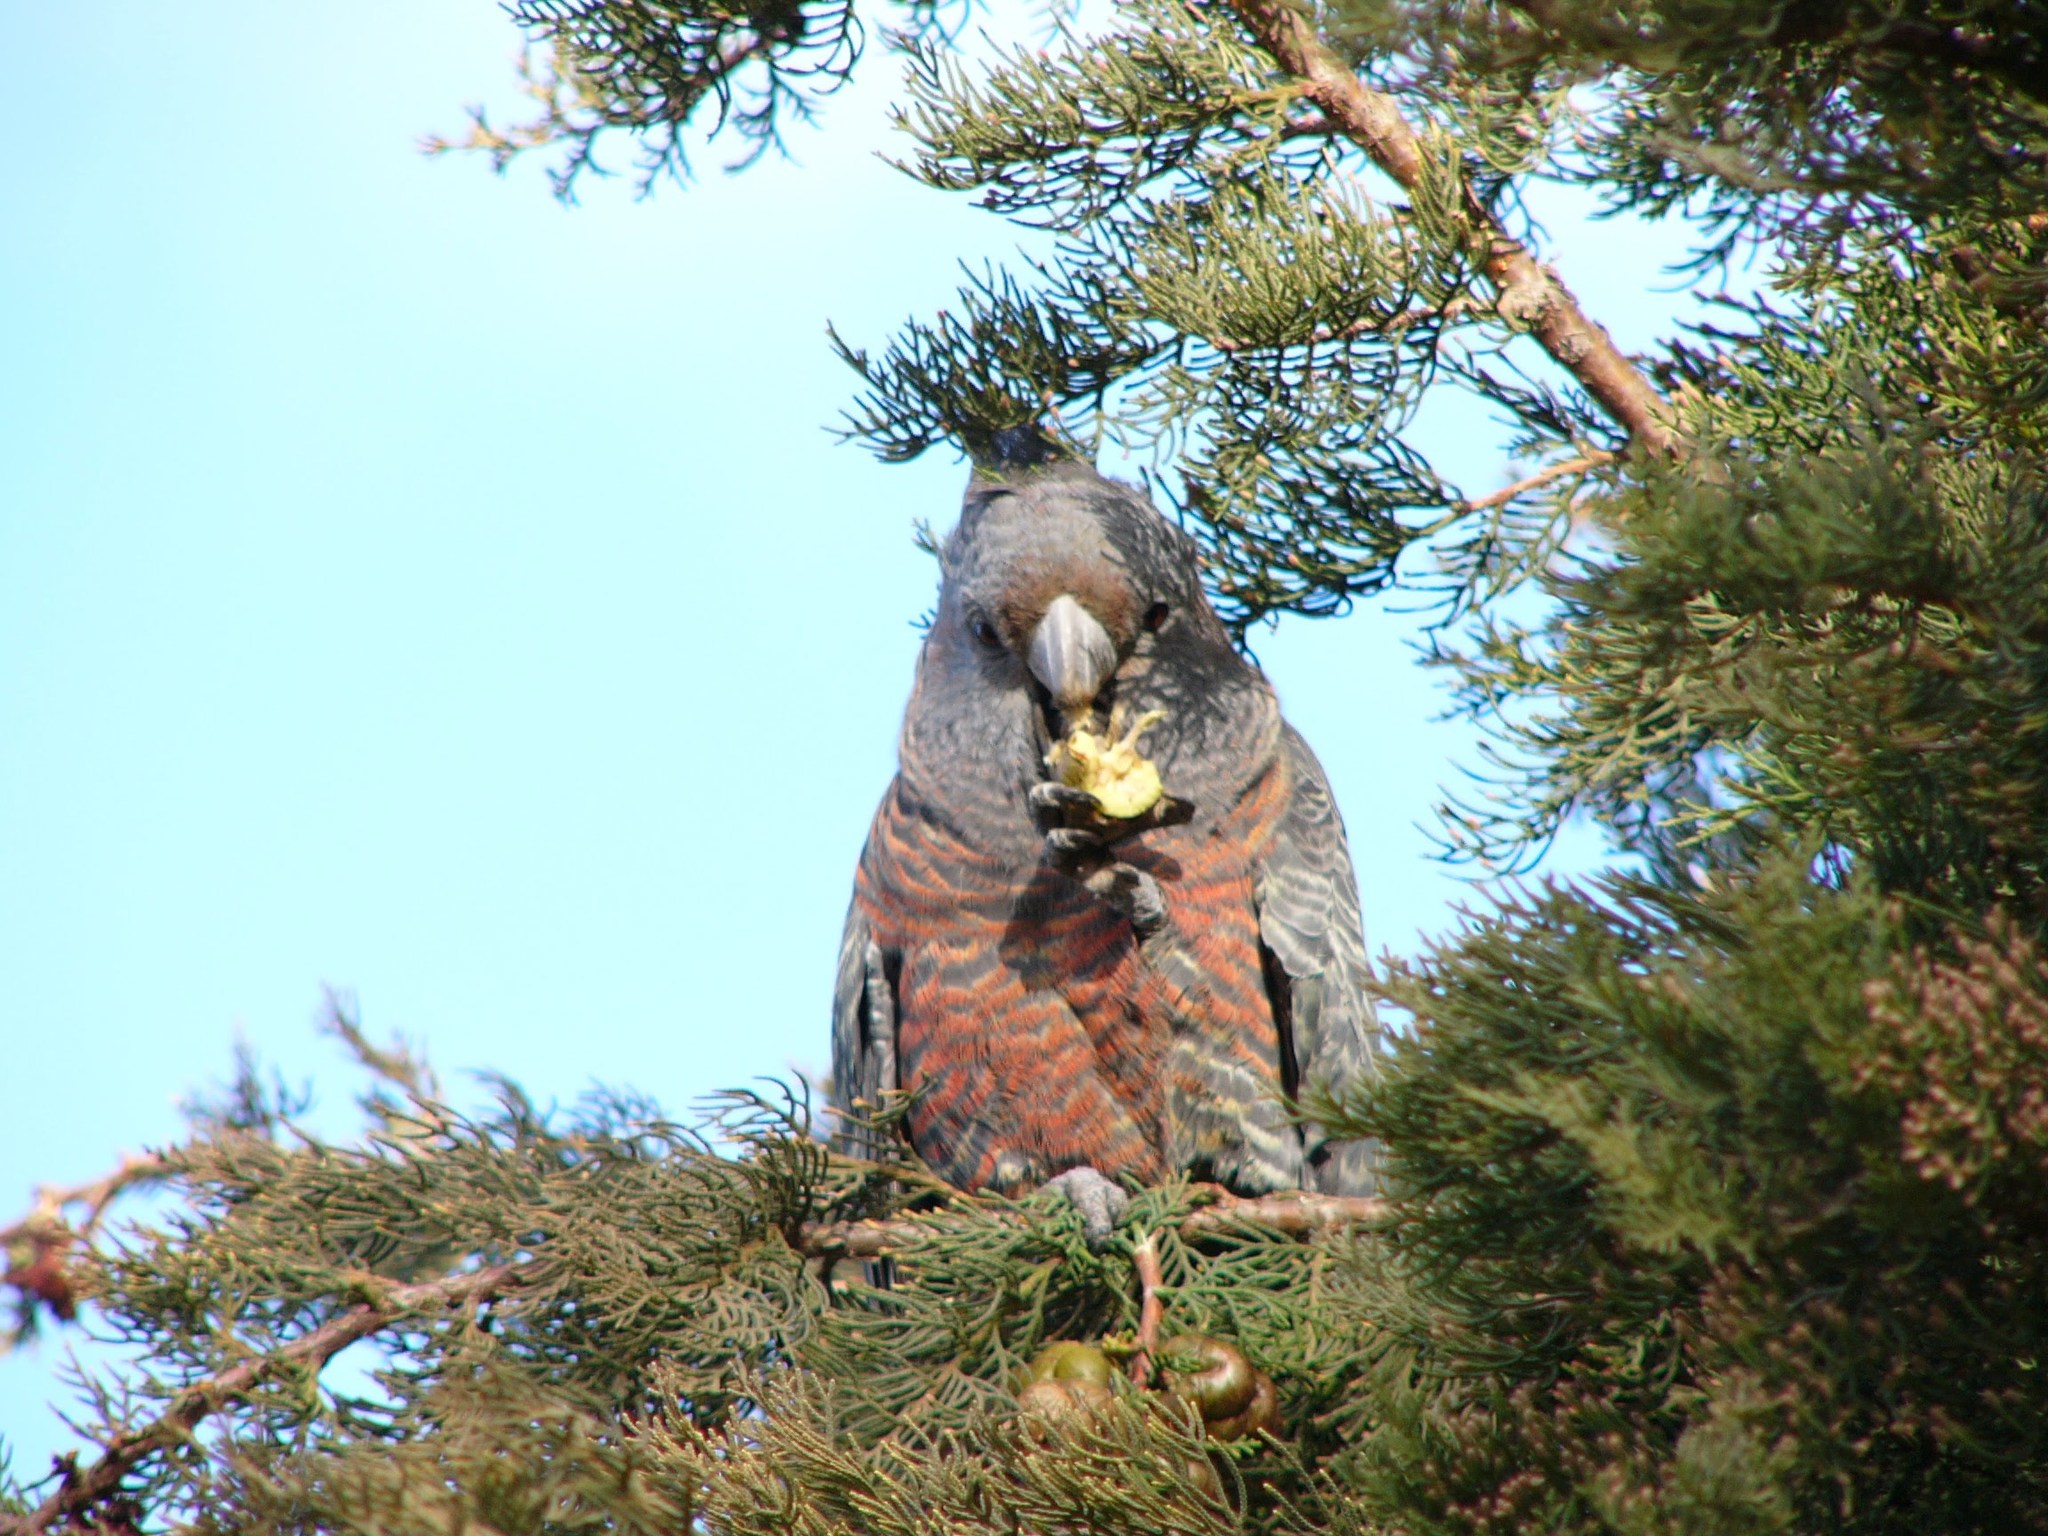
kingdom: Animalia
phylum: Chordata
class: Aves
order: Psittaciformes
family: Psittacidae
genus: Callocephalon
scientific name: Callocephalon fimbriatum
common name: Gang-gang cockatoo
